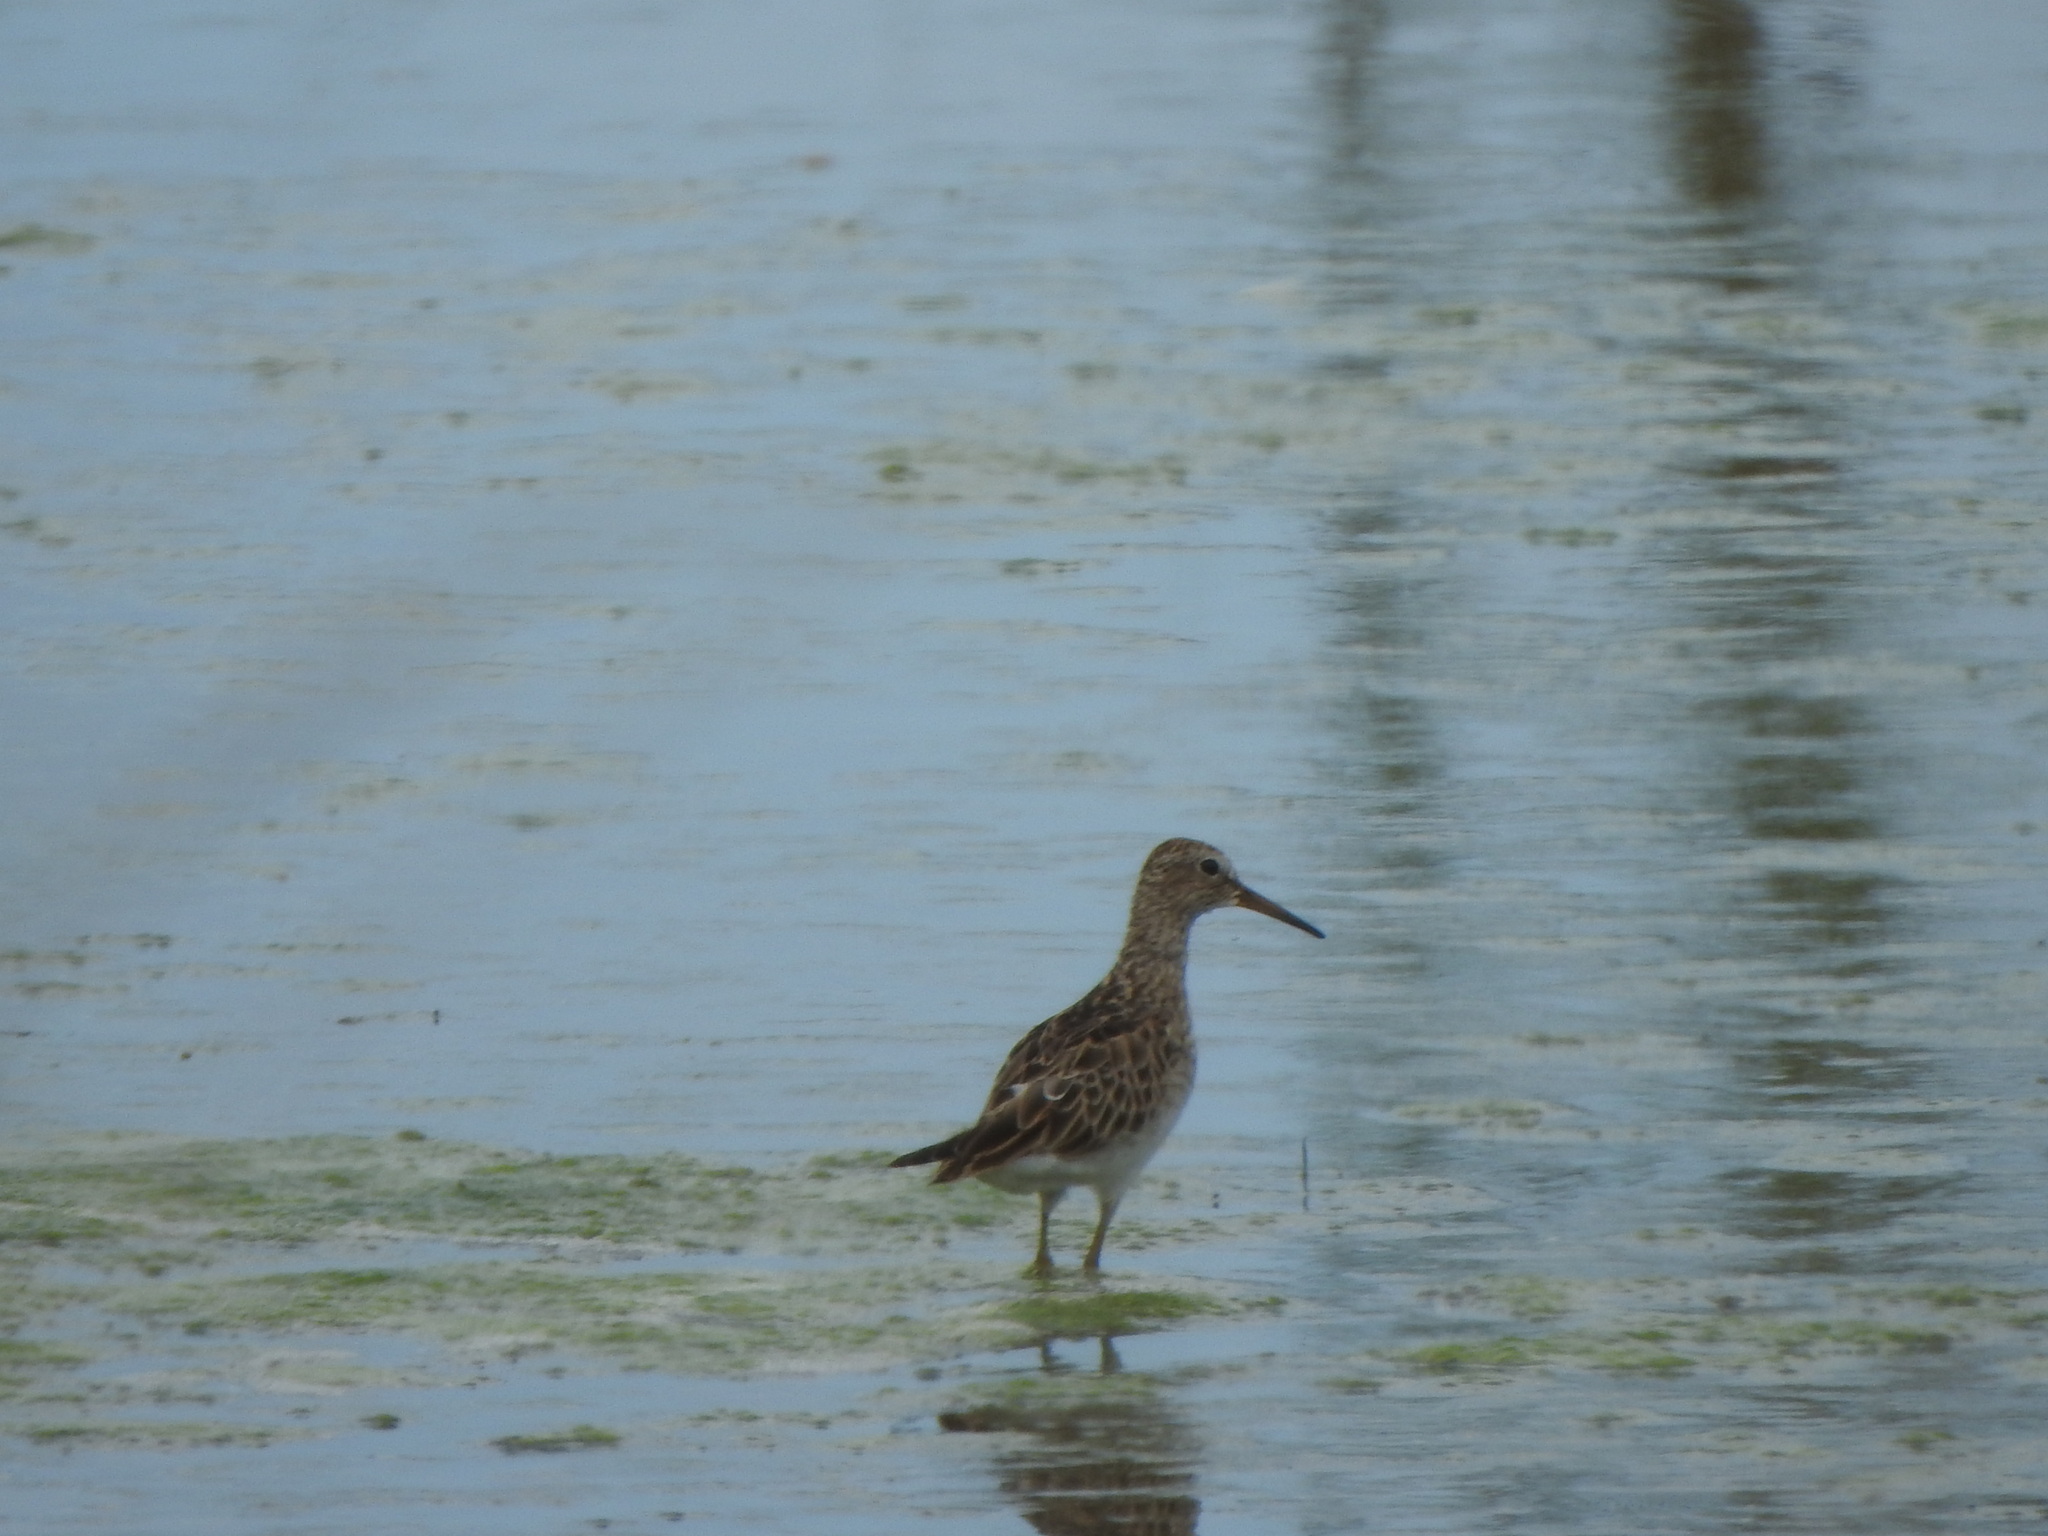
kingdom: Animalia
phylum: Chordata
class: Aves
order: Charadriiformes
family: Scolopacidae
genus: Calidris
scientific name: Calidris melanotos
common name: Pectoral sandpiper
